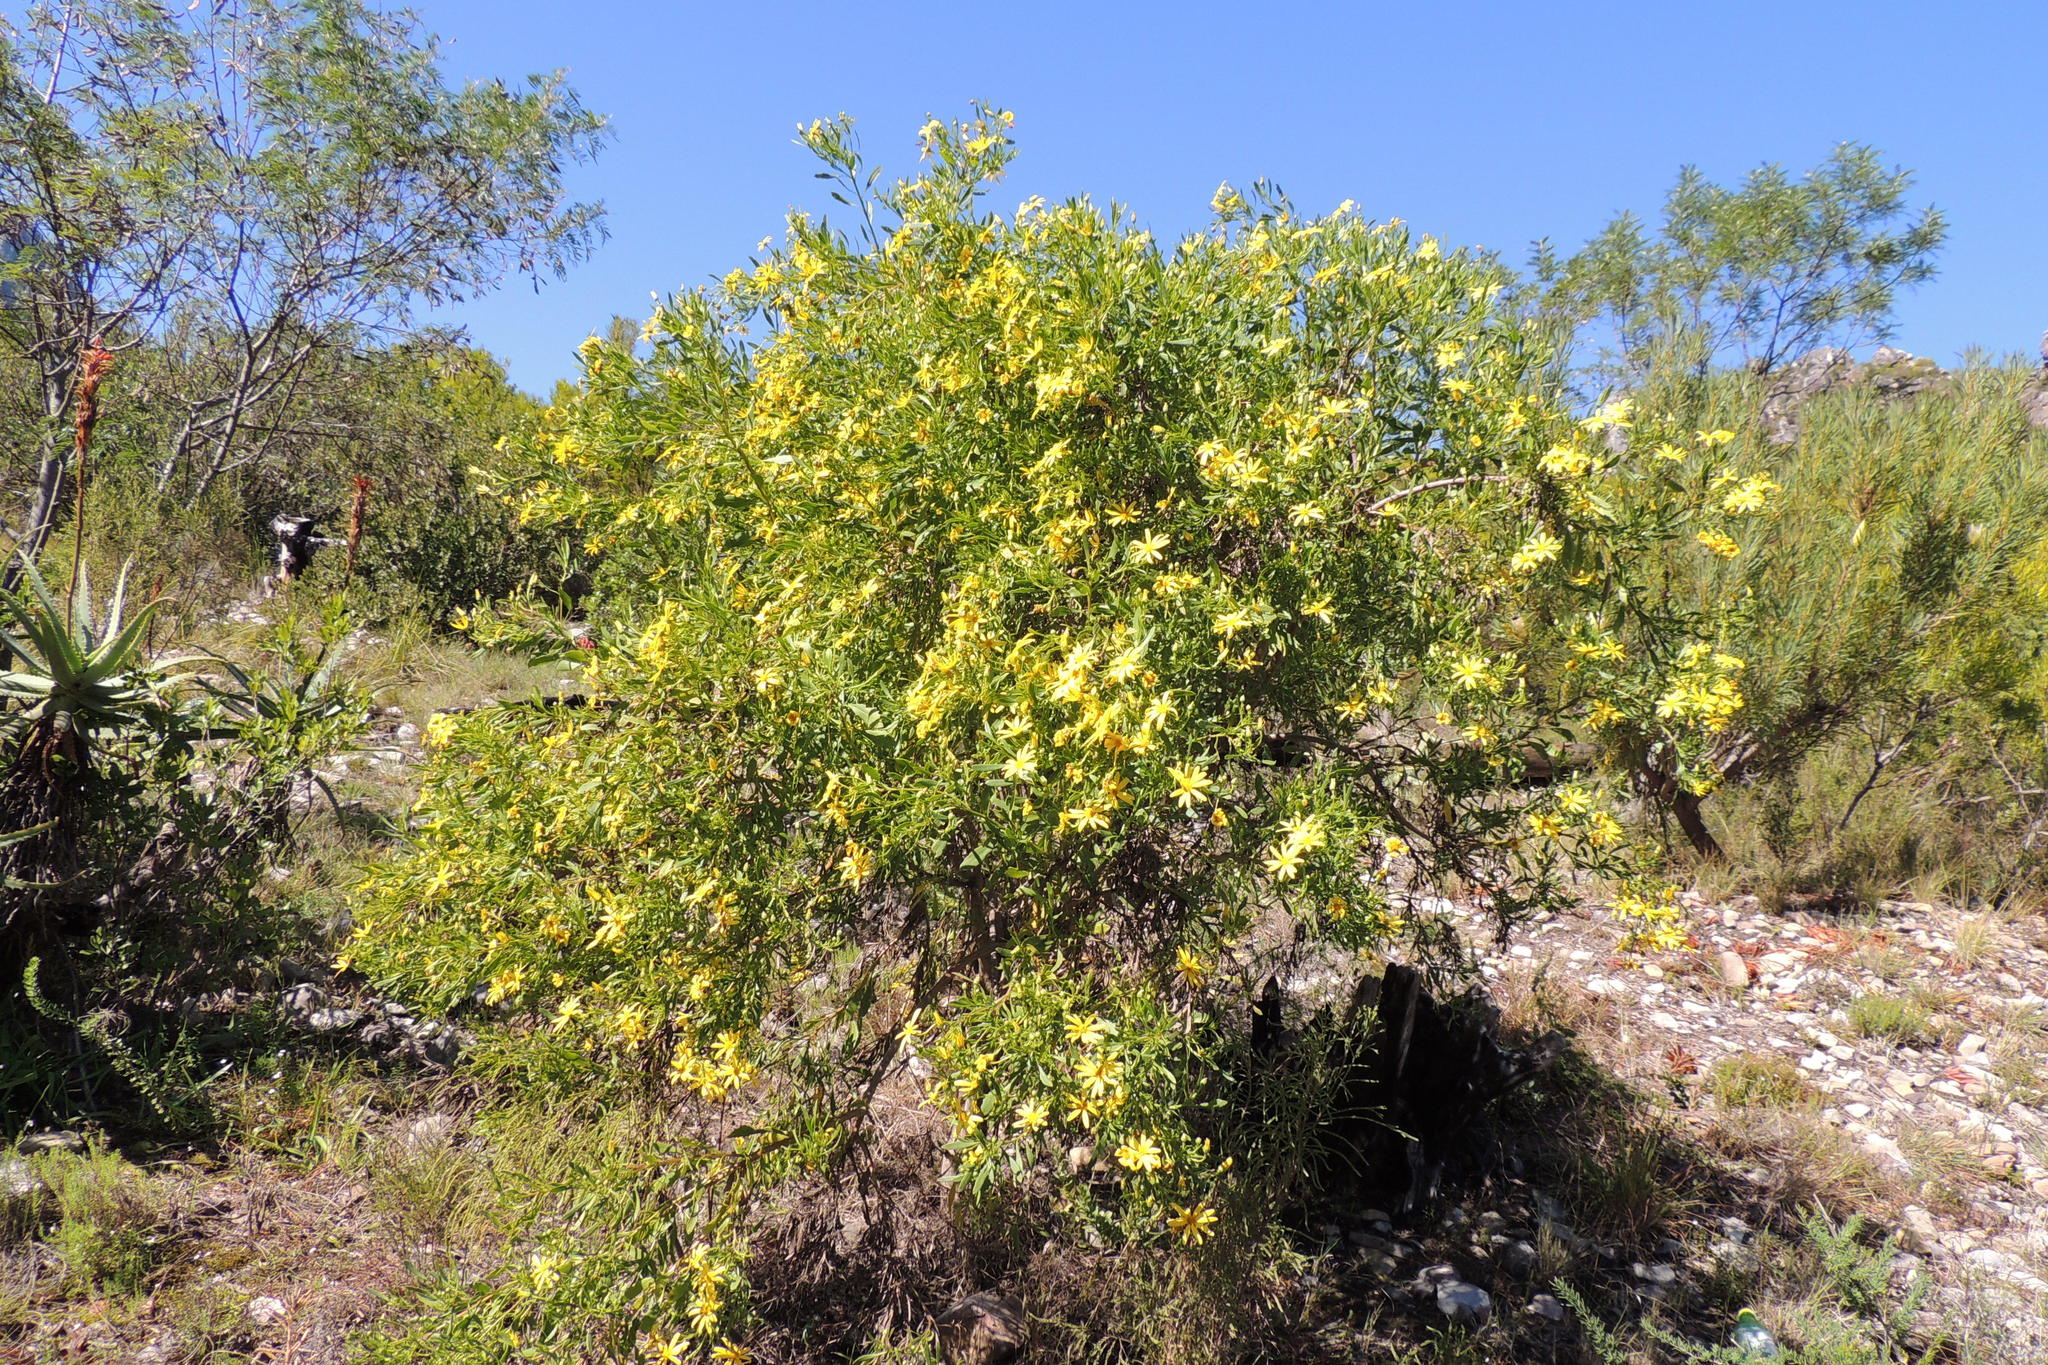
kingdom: Plantae
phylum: Tracheophyta
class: Magnoliopsida
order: Asterales
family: Asteraceae
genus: Osteospermum
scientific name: Osteospermum moniliferum
